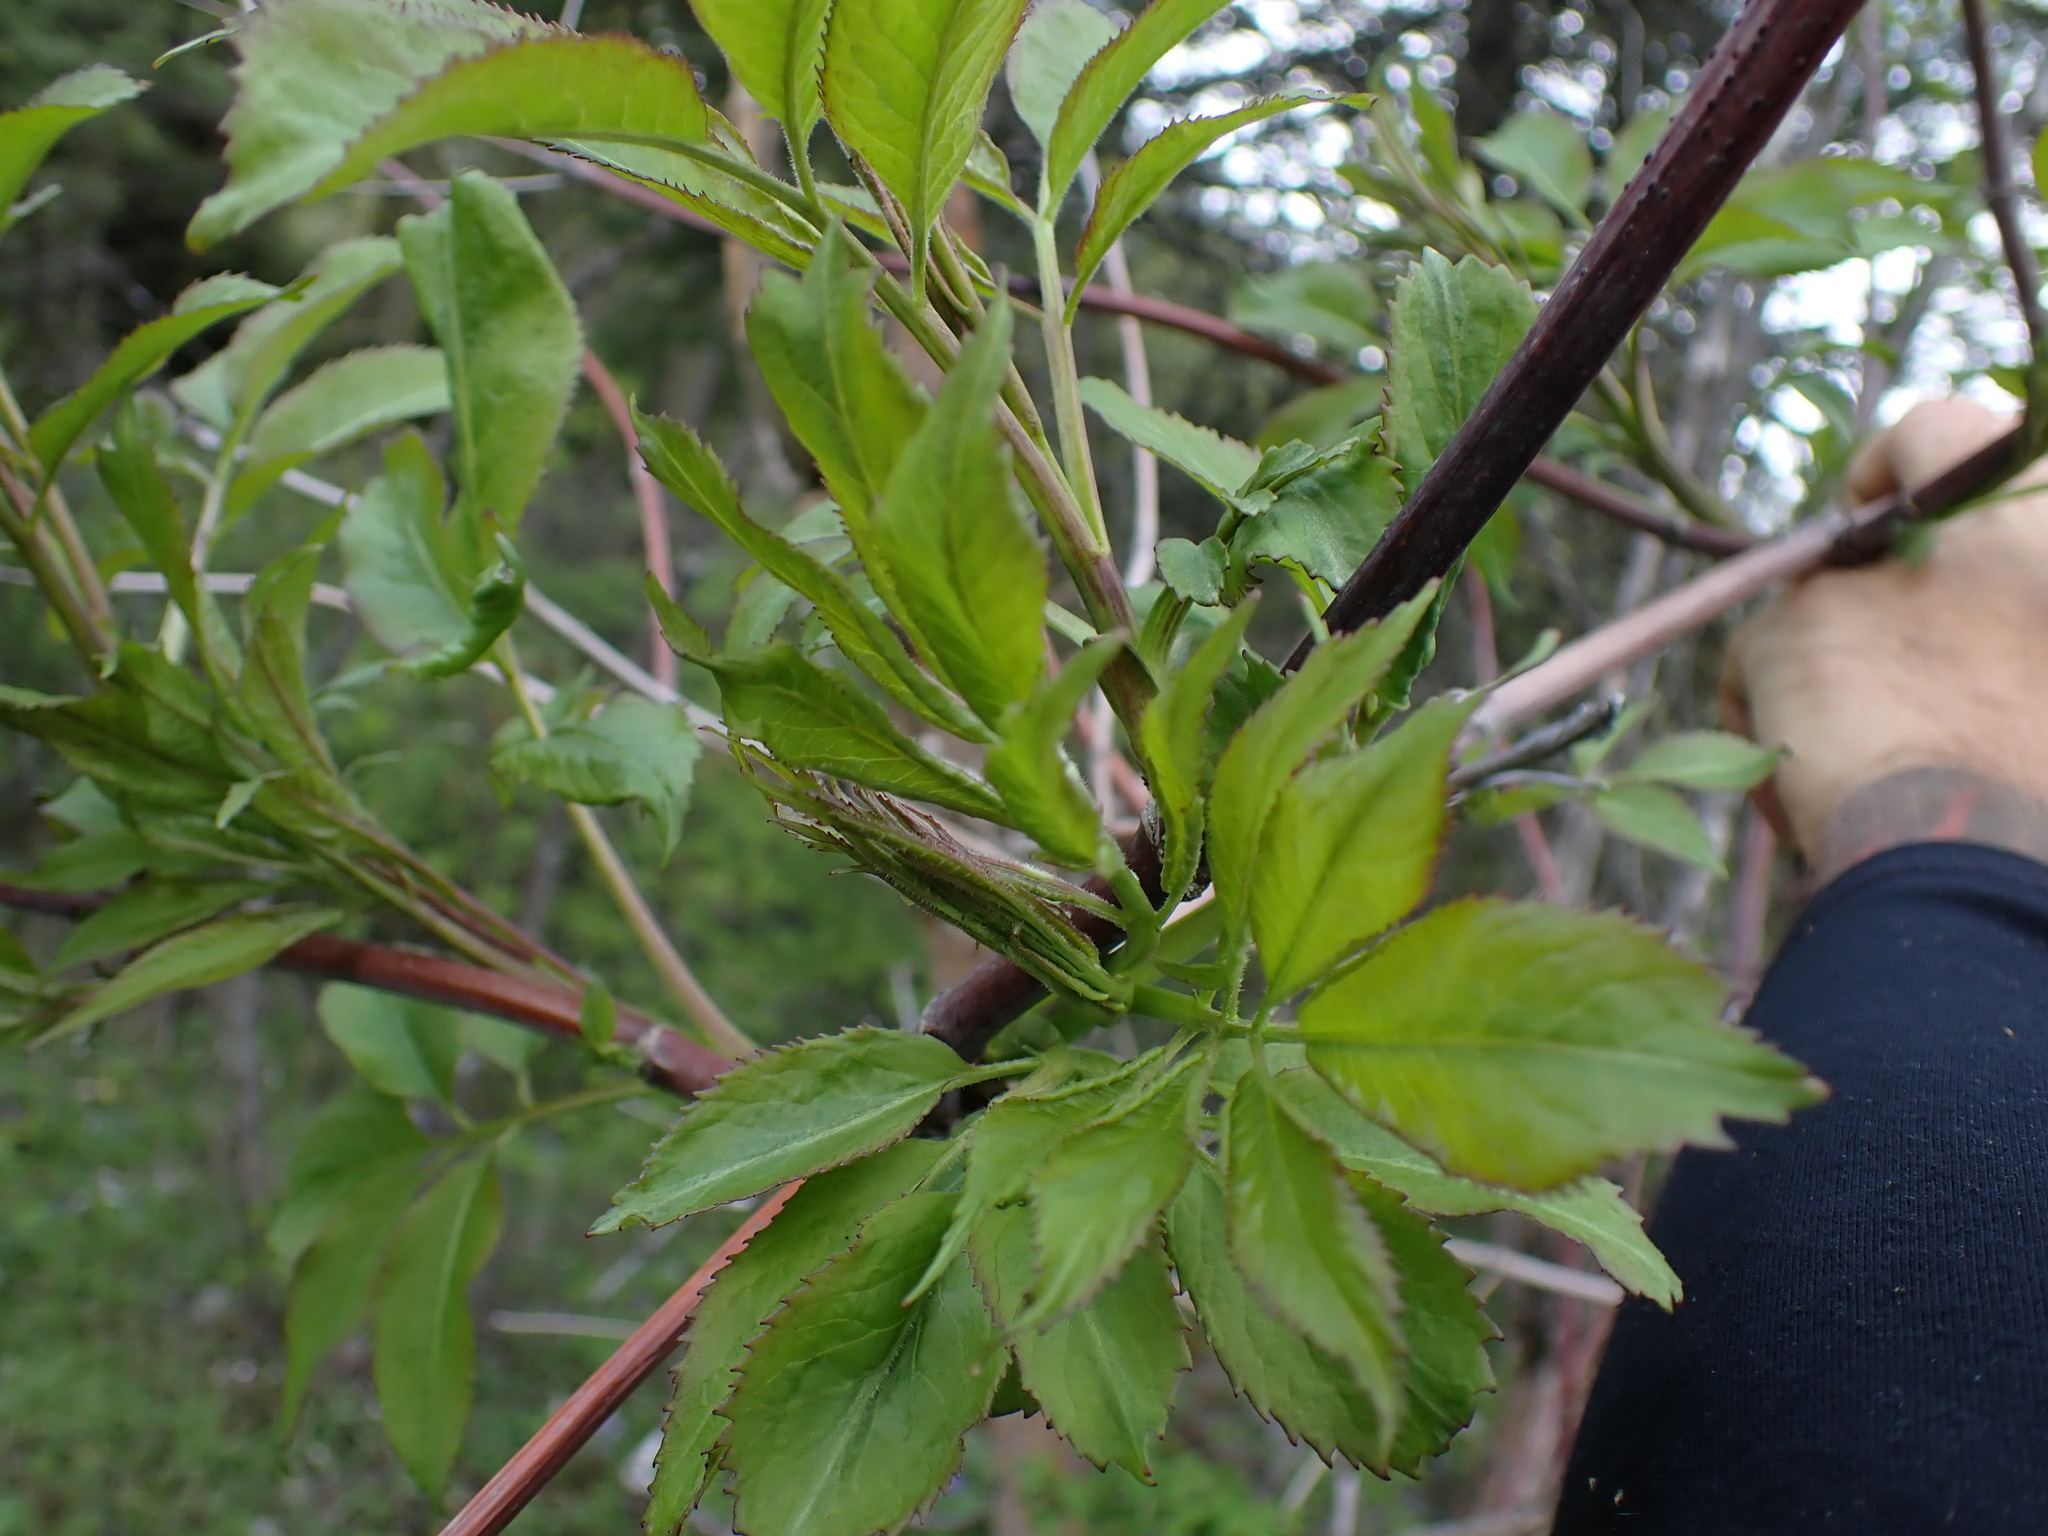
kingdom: Plantae
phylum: Tracheophyta
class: Magnoliopsida
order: Dipsacales
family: Viburnaceae
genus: Sambucus
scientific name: Sambucus cerulea
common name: Blue elder
